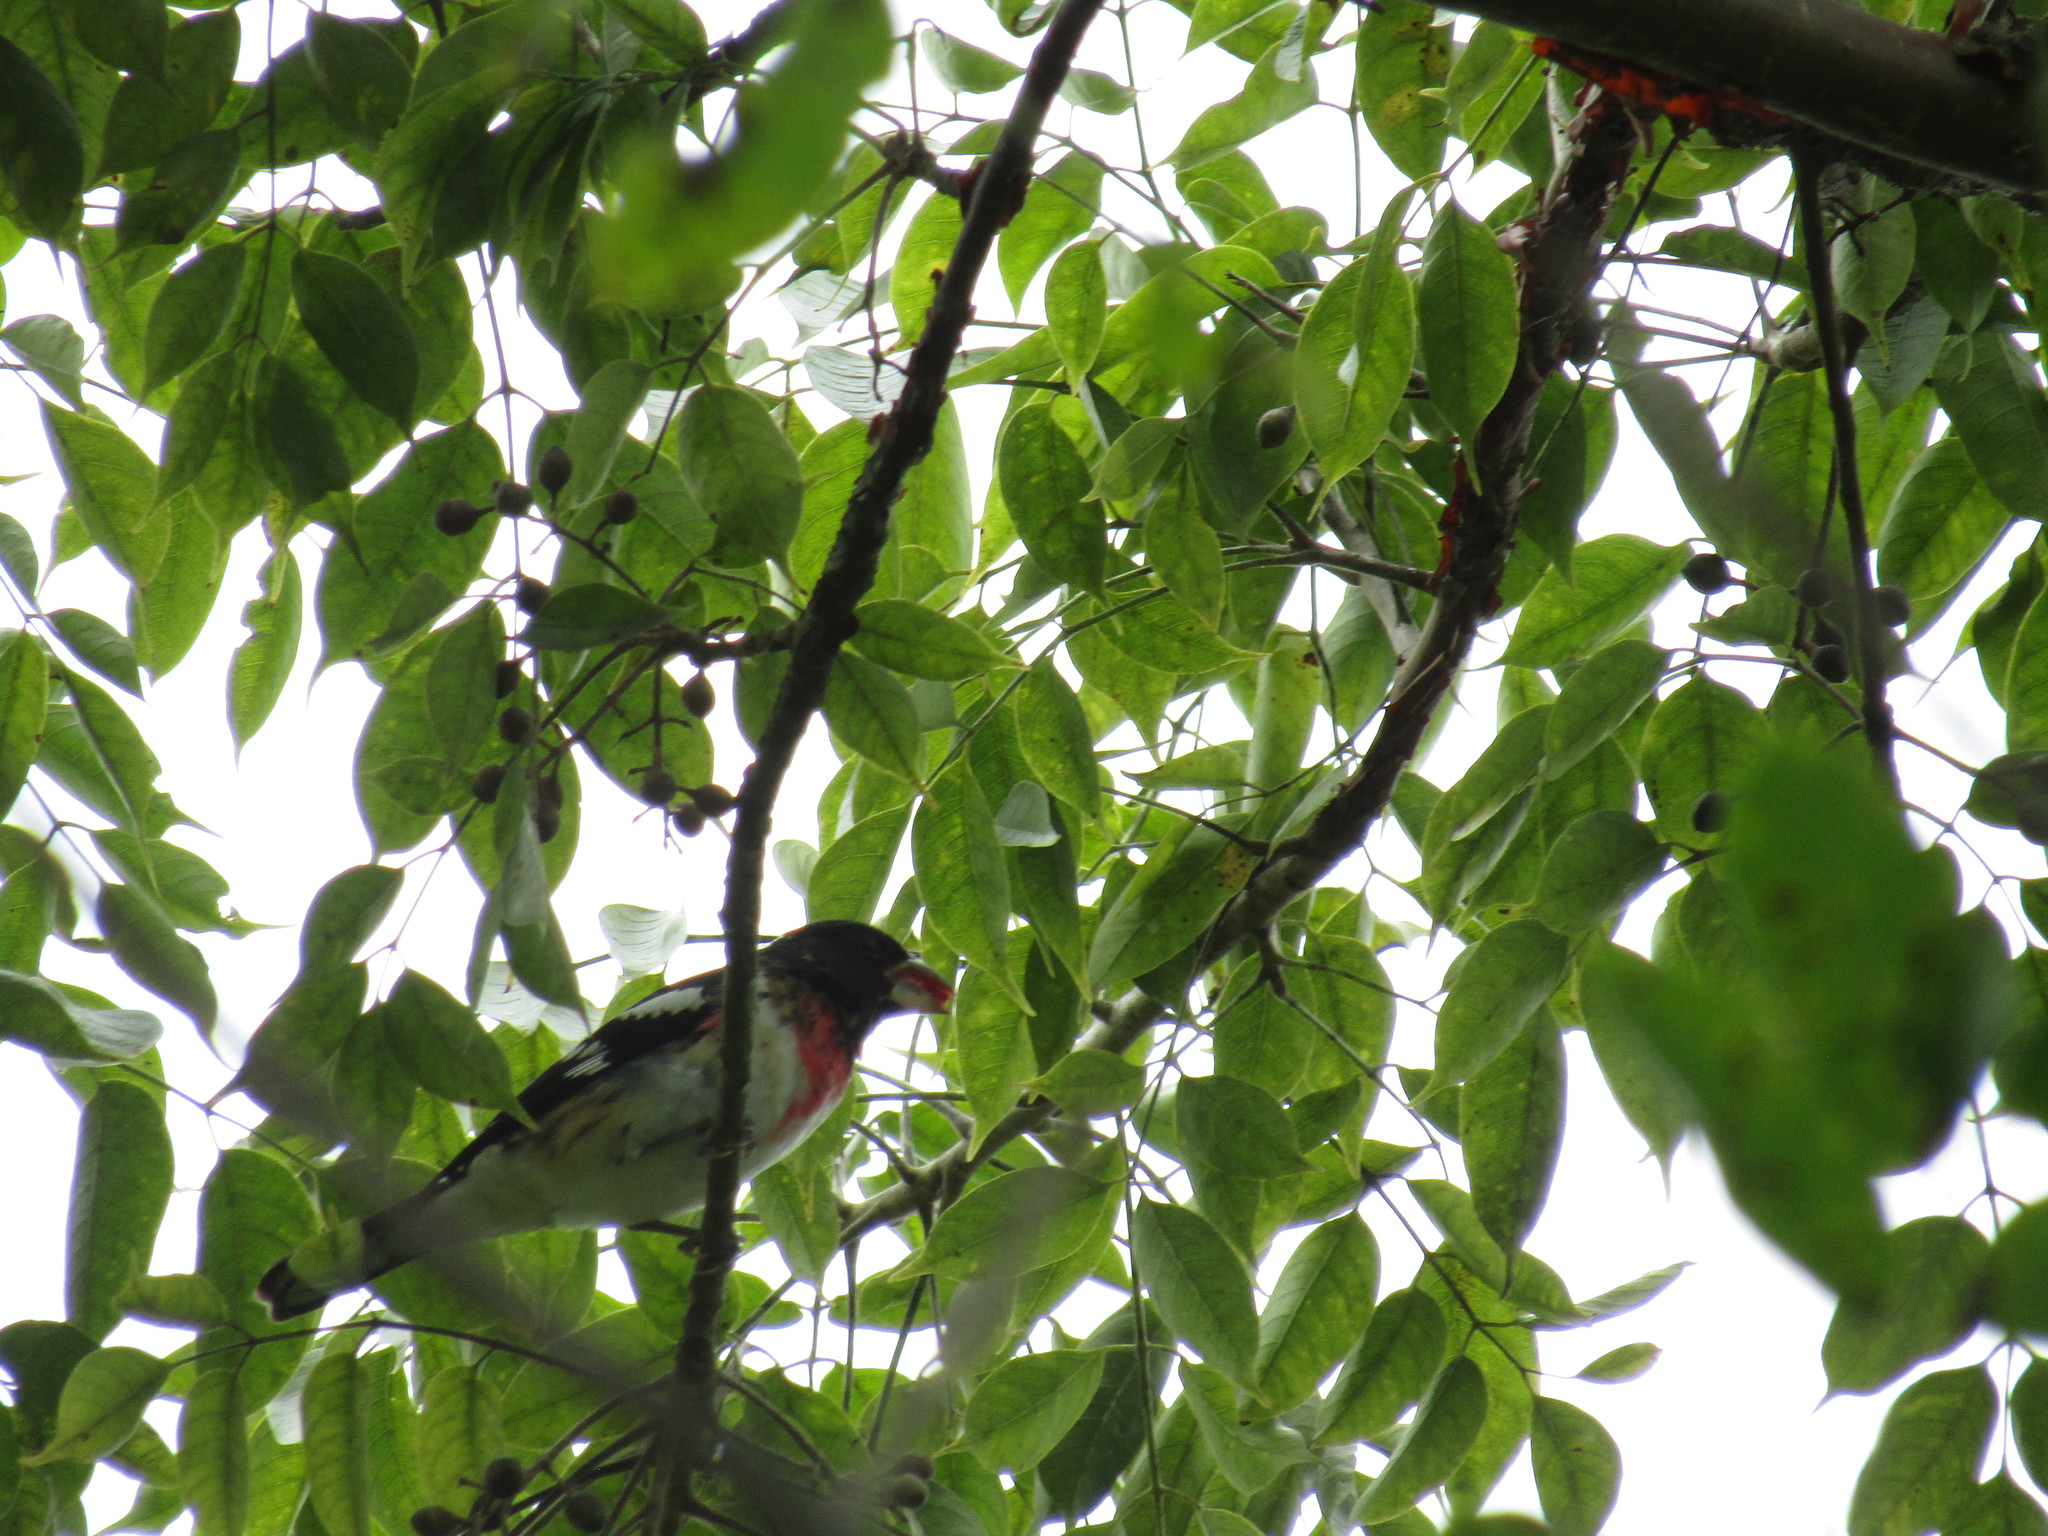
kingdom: Animalia
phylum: Chordata
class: Aves
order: Passeriformes
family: Cardinalidae
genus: Pheucticus
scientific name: Pheucticus ludovicianus
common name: Rose-breasted grosbeak
